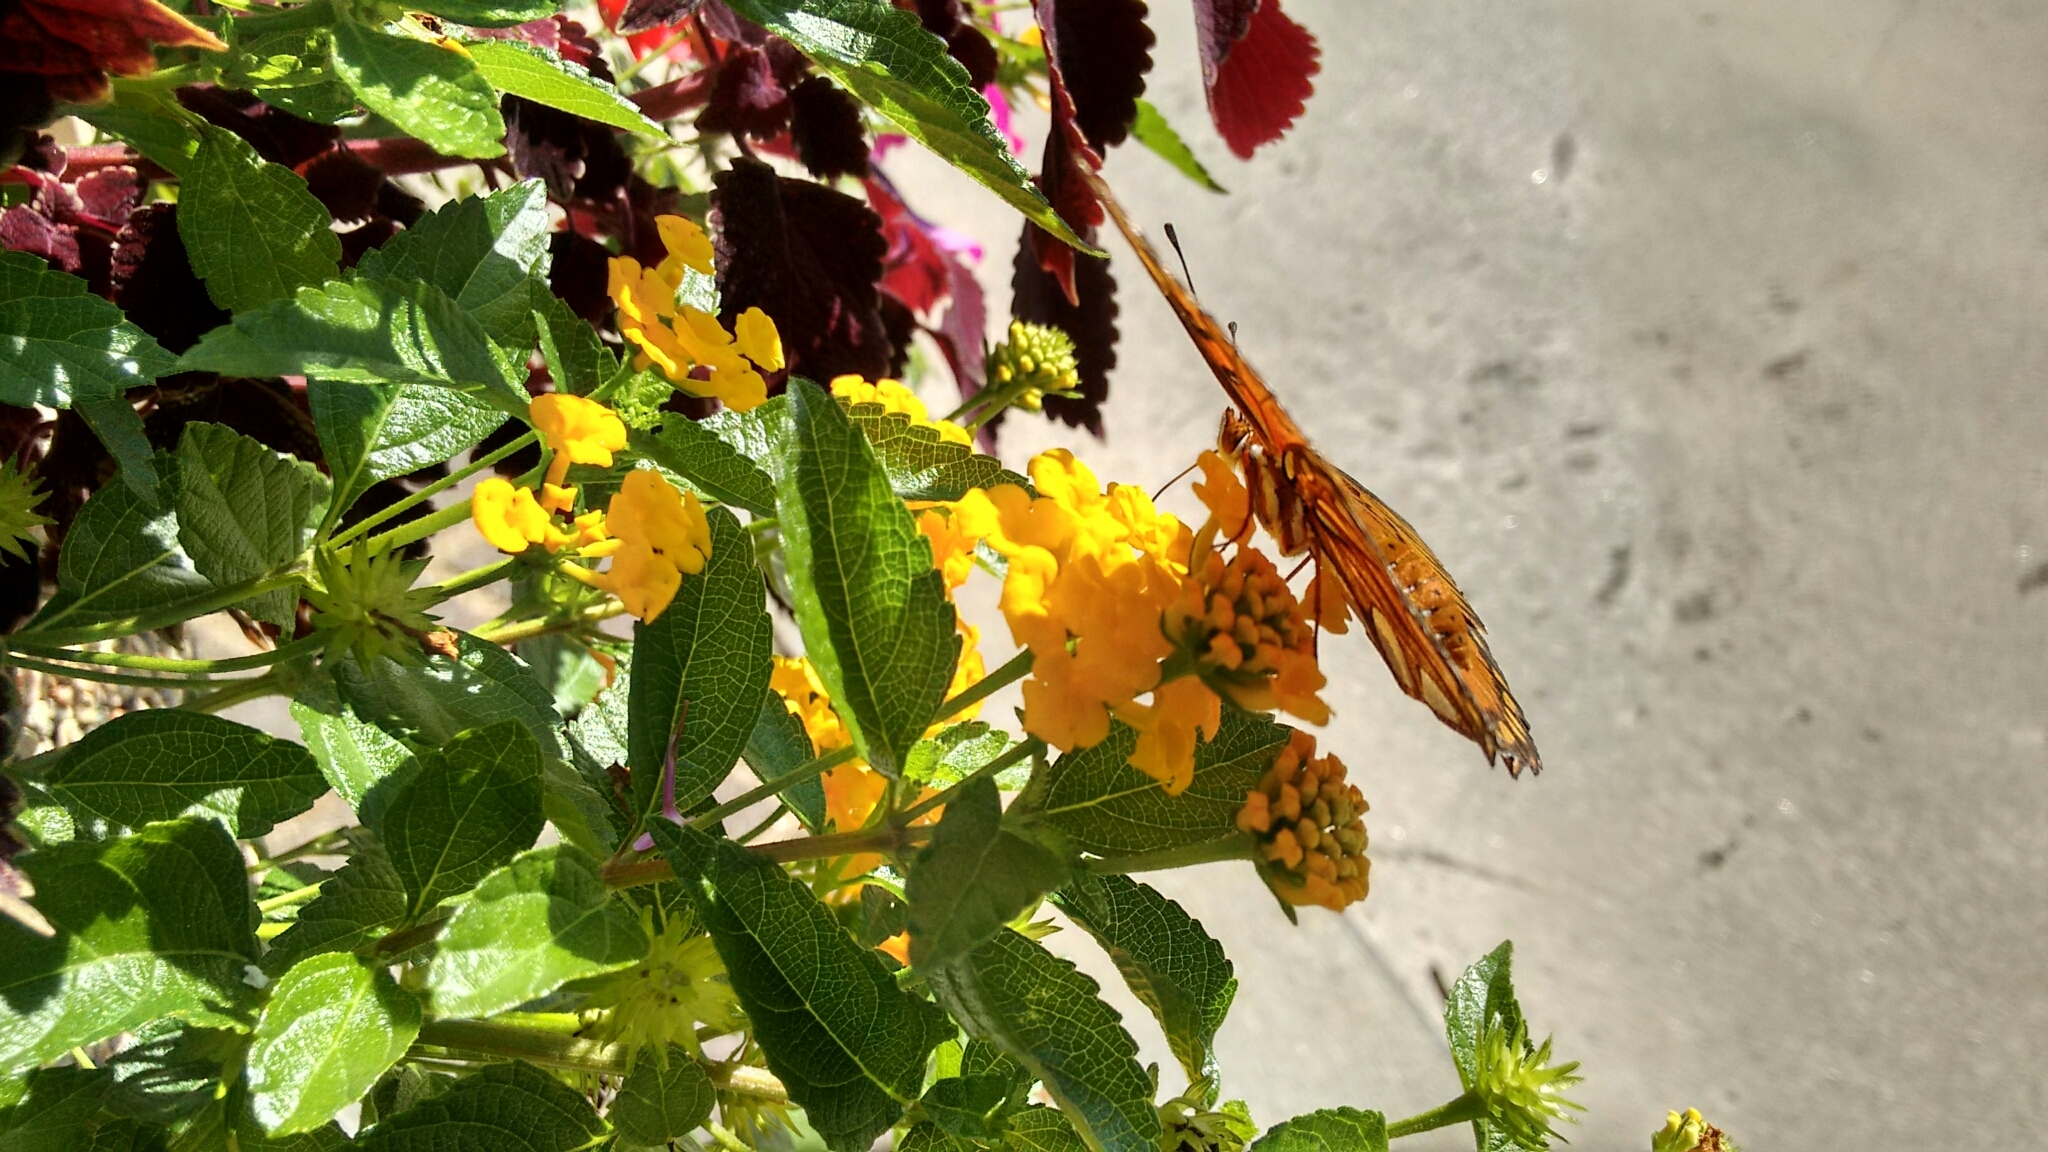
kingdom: Animalia
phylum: Arthropoda
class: Insecta
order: Lepidoptera
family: Nymphalidae
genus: Dione
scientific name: Dione vanillae
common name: Gulf fritillary
